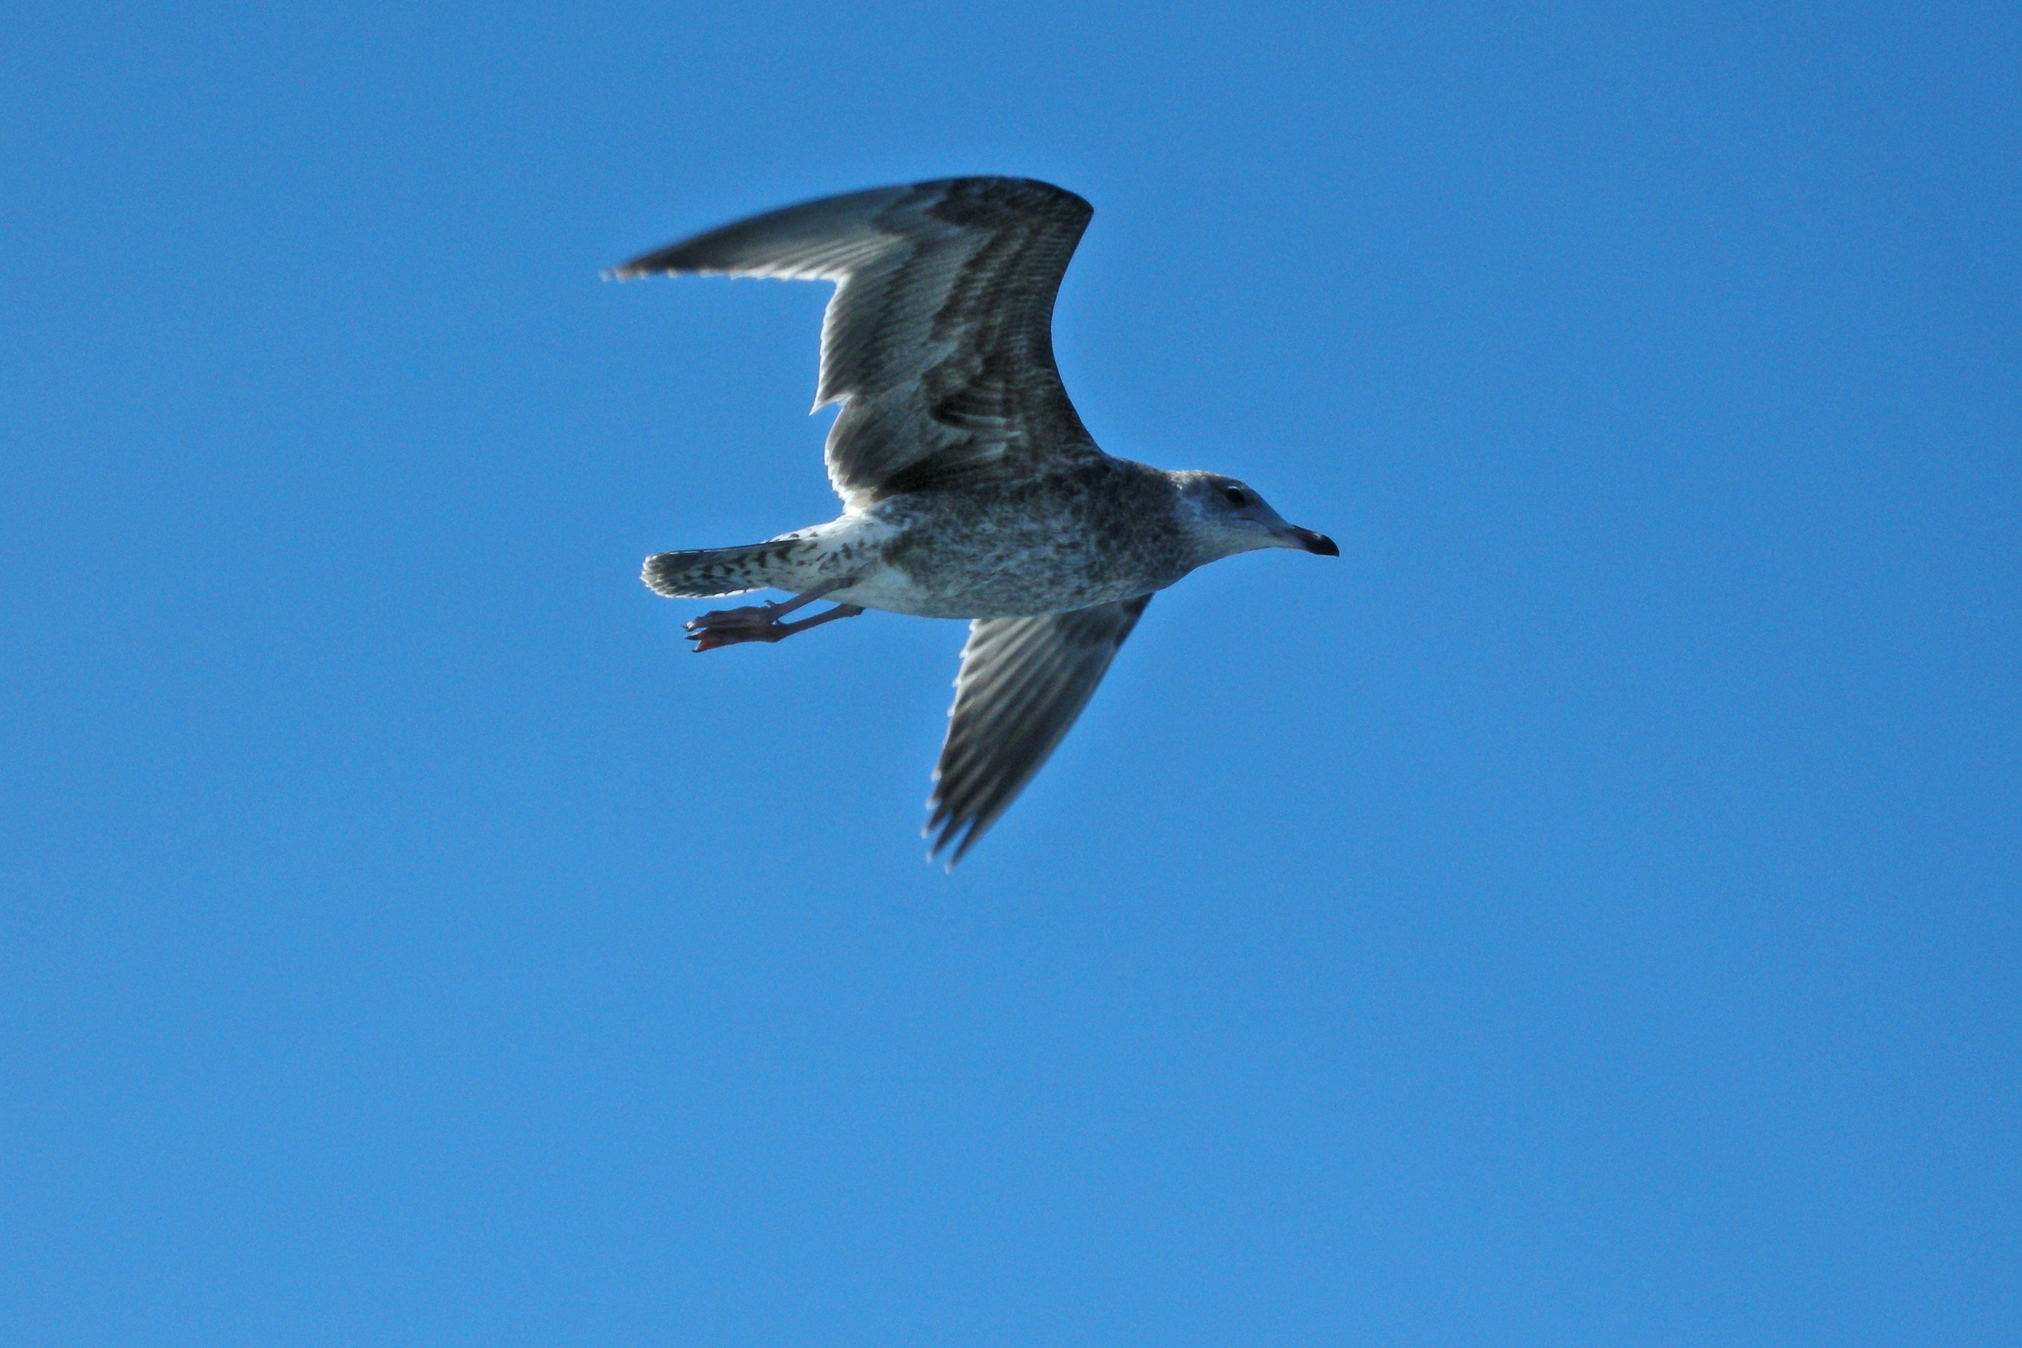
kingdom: Animalia
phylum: Chordata
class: Aves
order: Charadriiformes
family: Laridae
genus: Larus
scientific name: Larus californicus
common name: California gull
